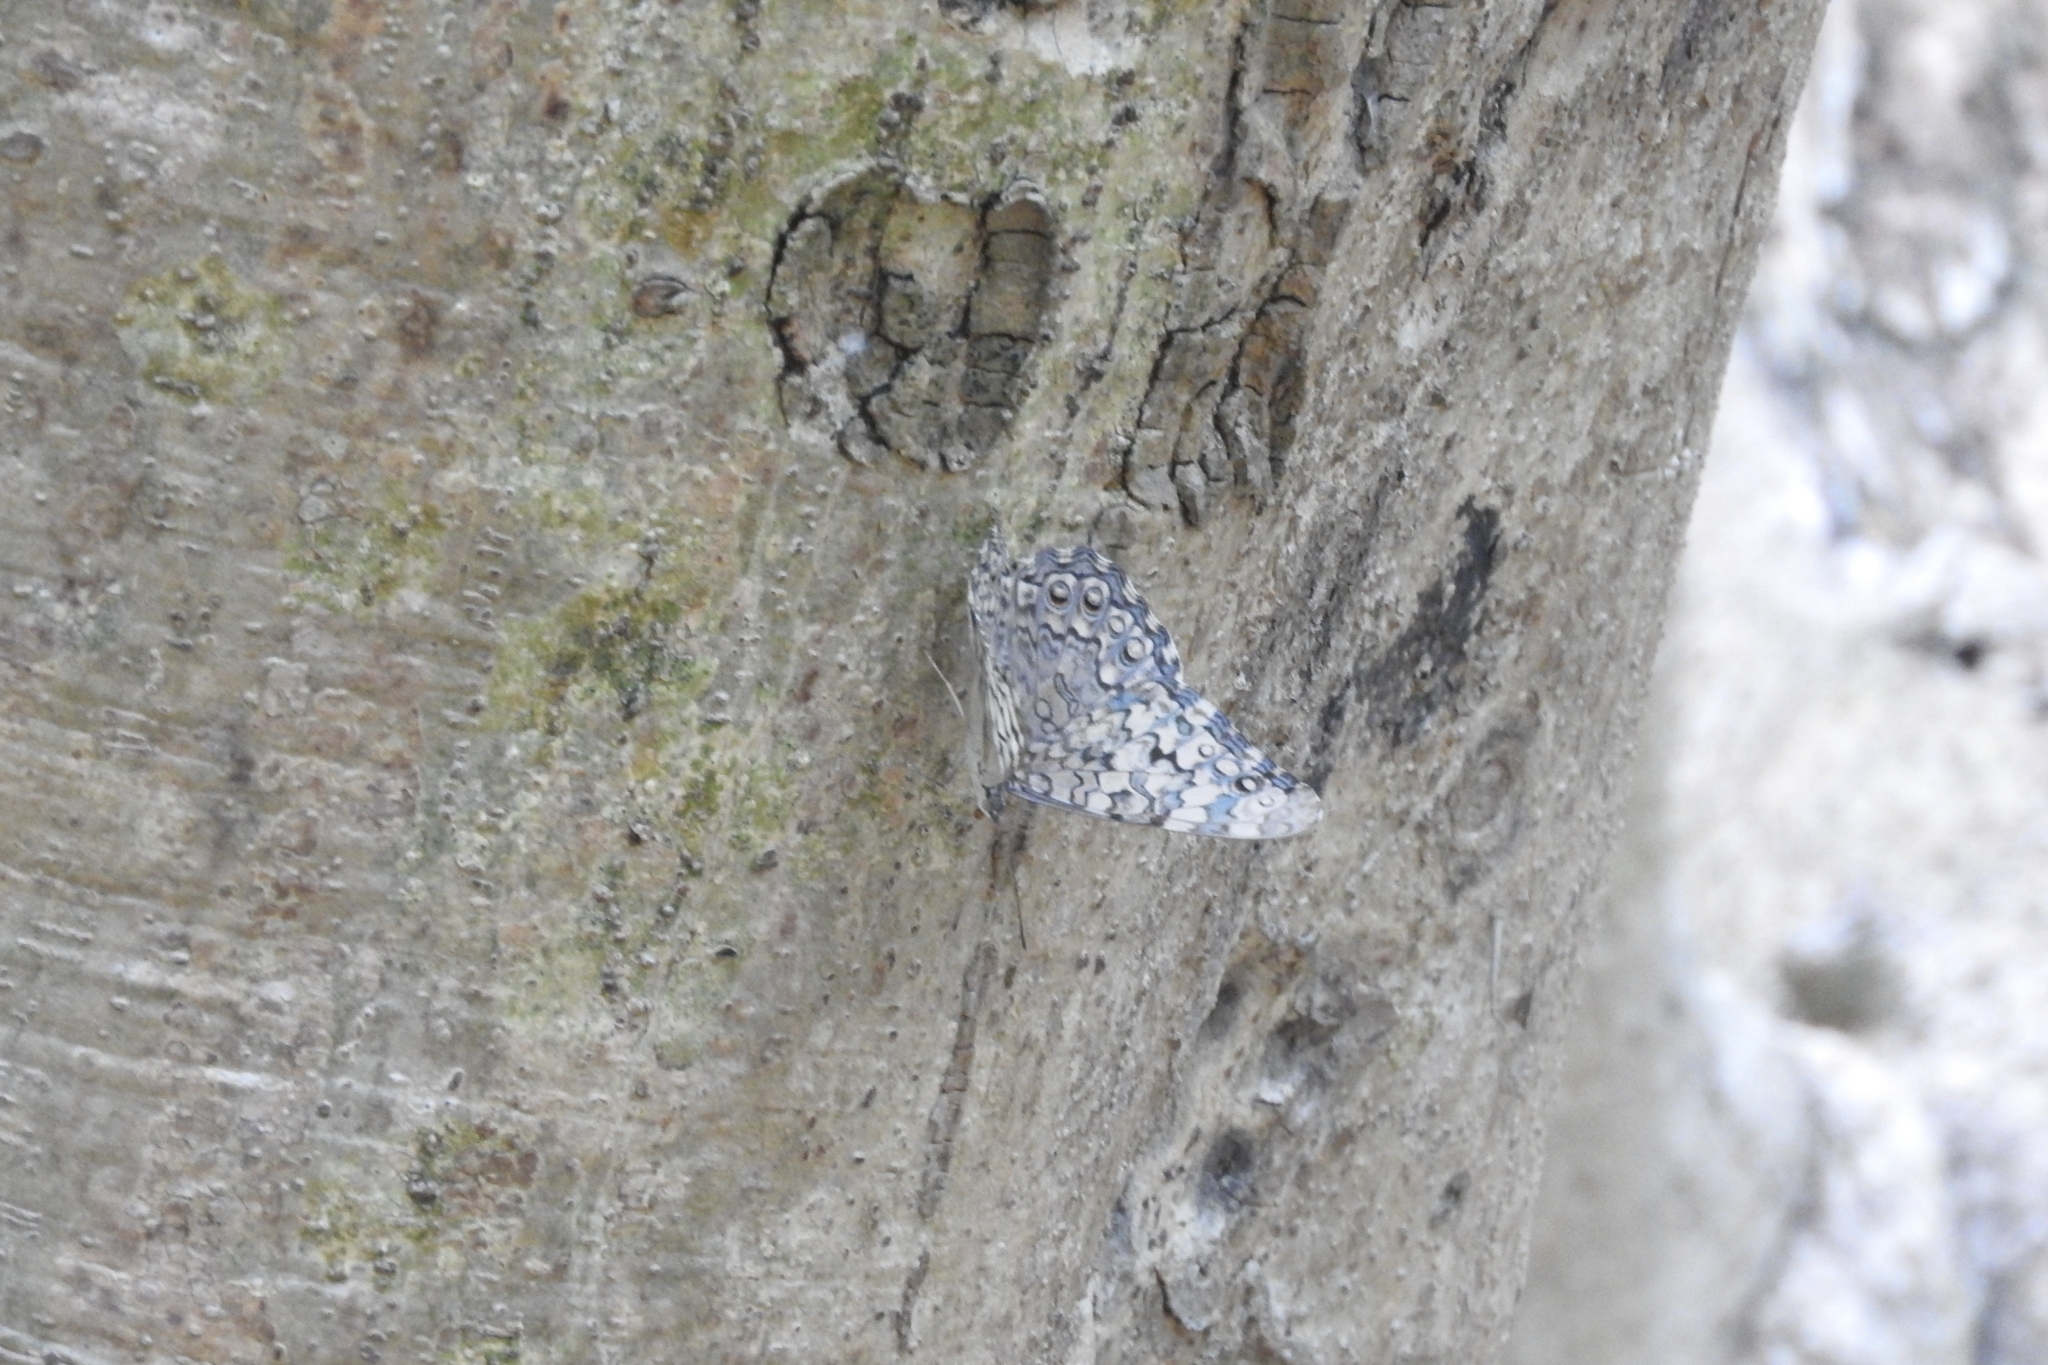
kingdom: Animalia
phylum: Arthropoda
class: Insecta
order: Lepidoptera
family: Nymphalidae
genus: Hamadryas
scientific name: Hamadryas februa
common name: Gray cracker
